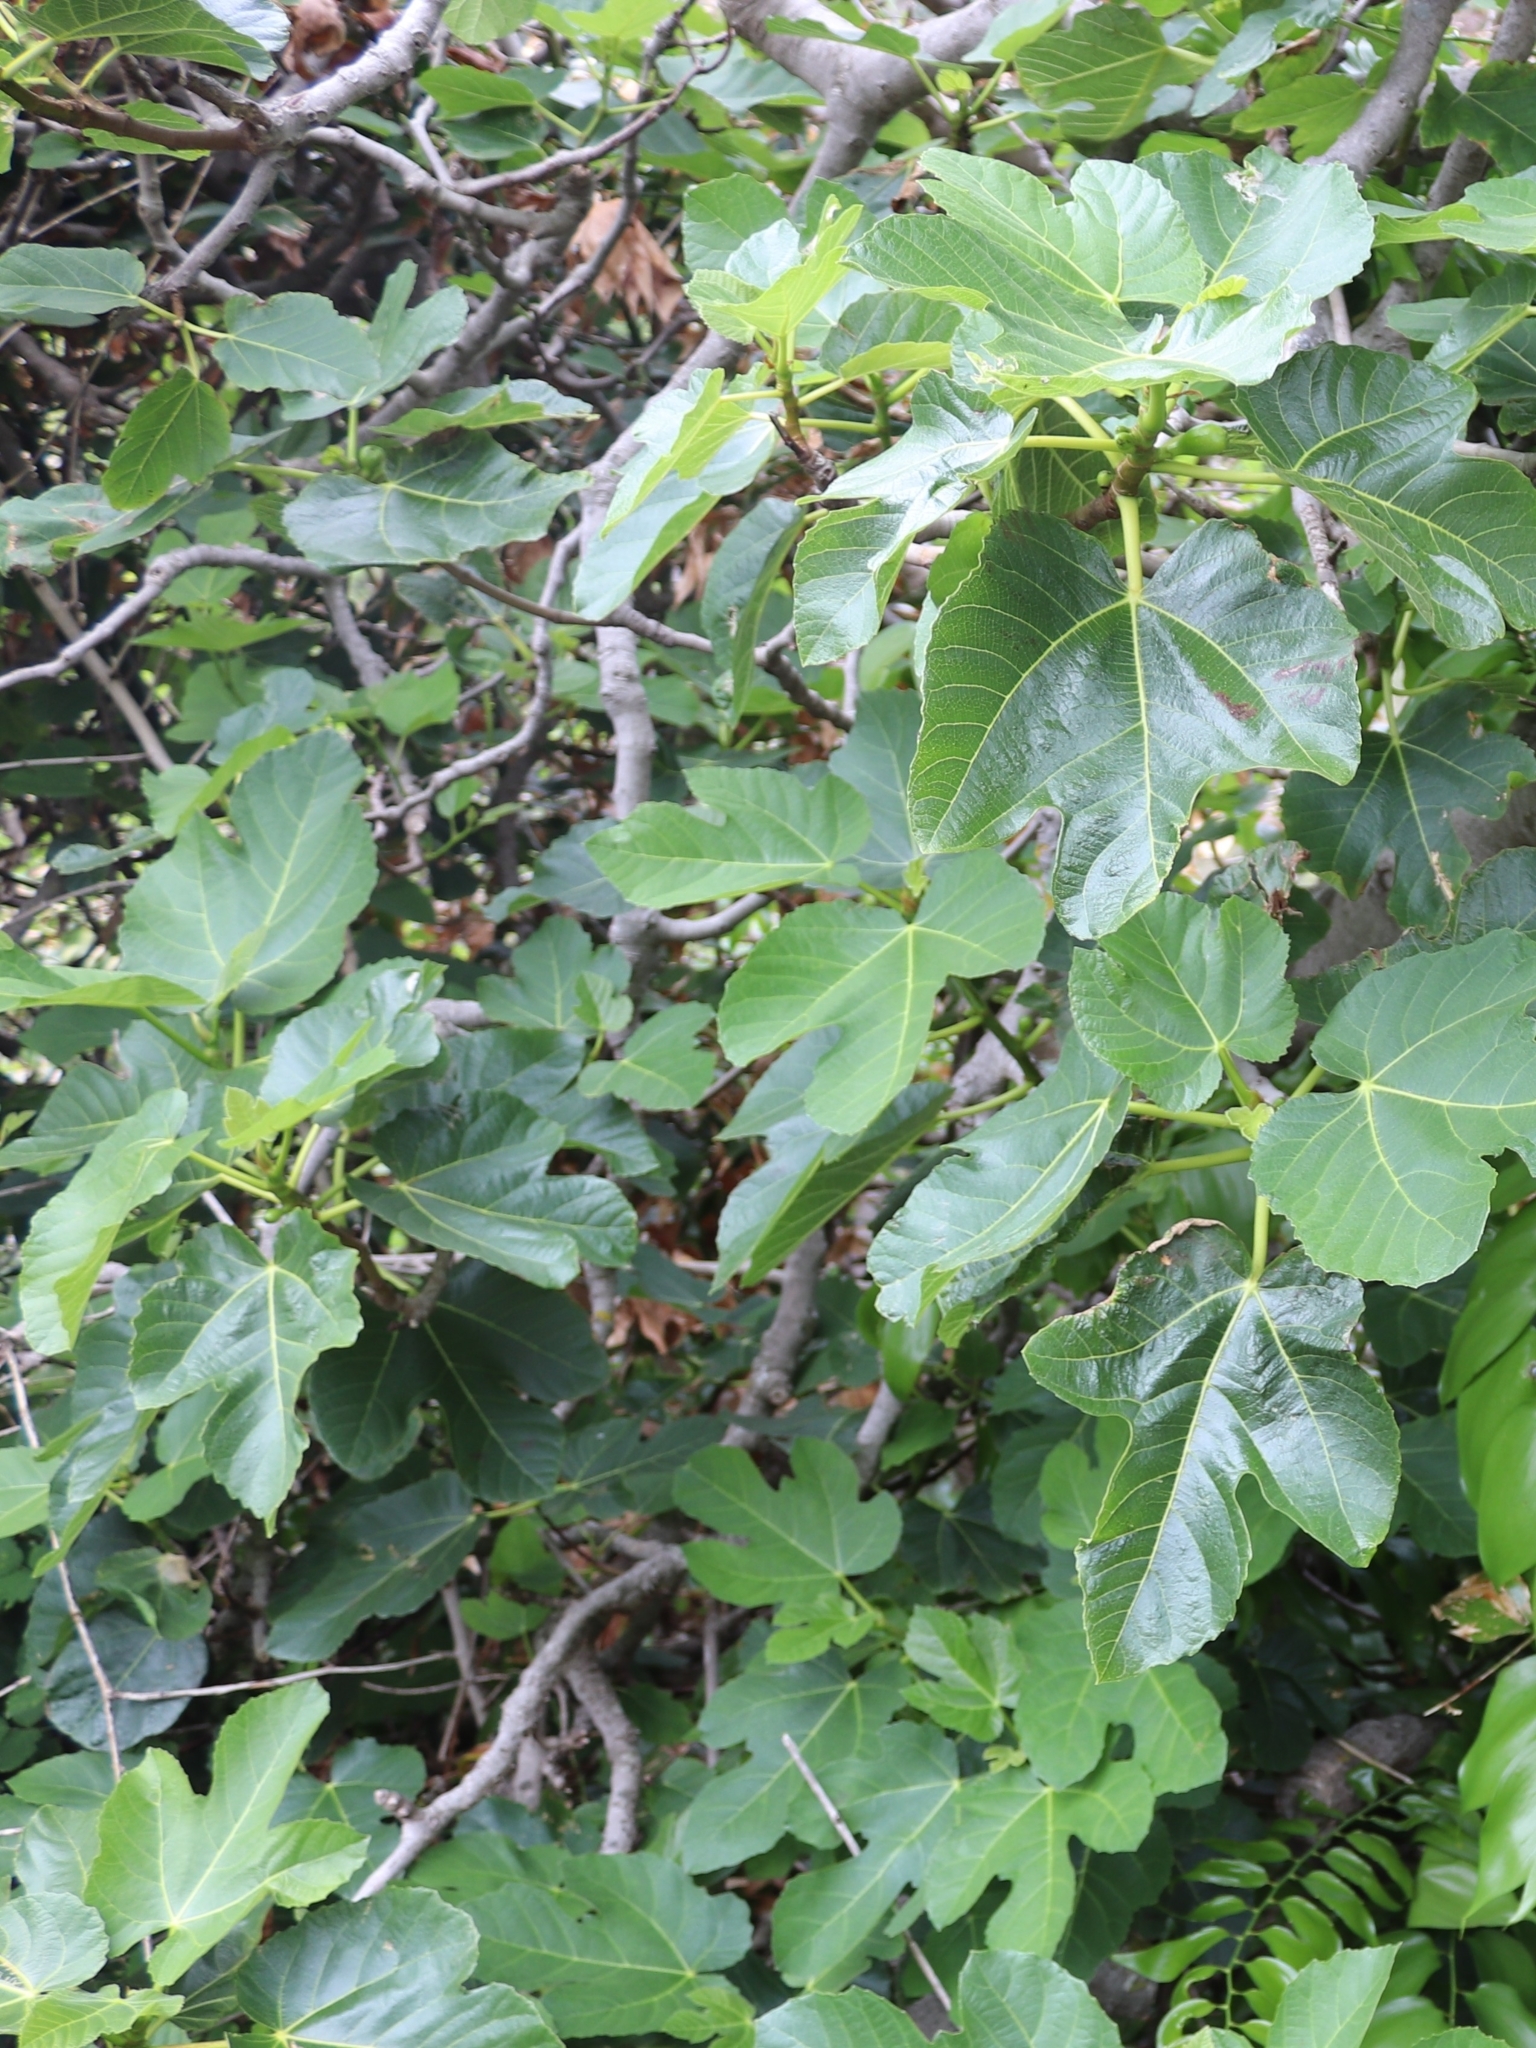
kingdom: Plantae
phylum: Tracheophyta
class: Magnoliopsida
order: Rosales
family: Moraceae
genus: Ficus
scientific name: Ficus carica
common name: Fig
